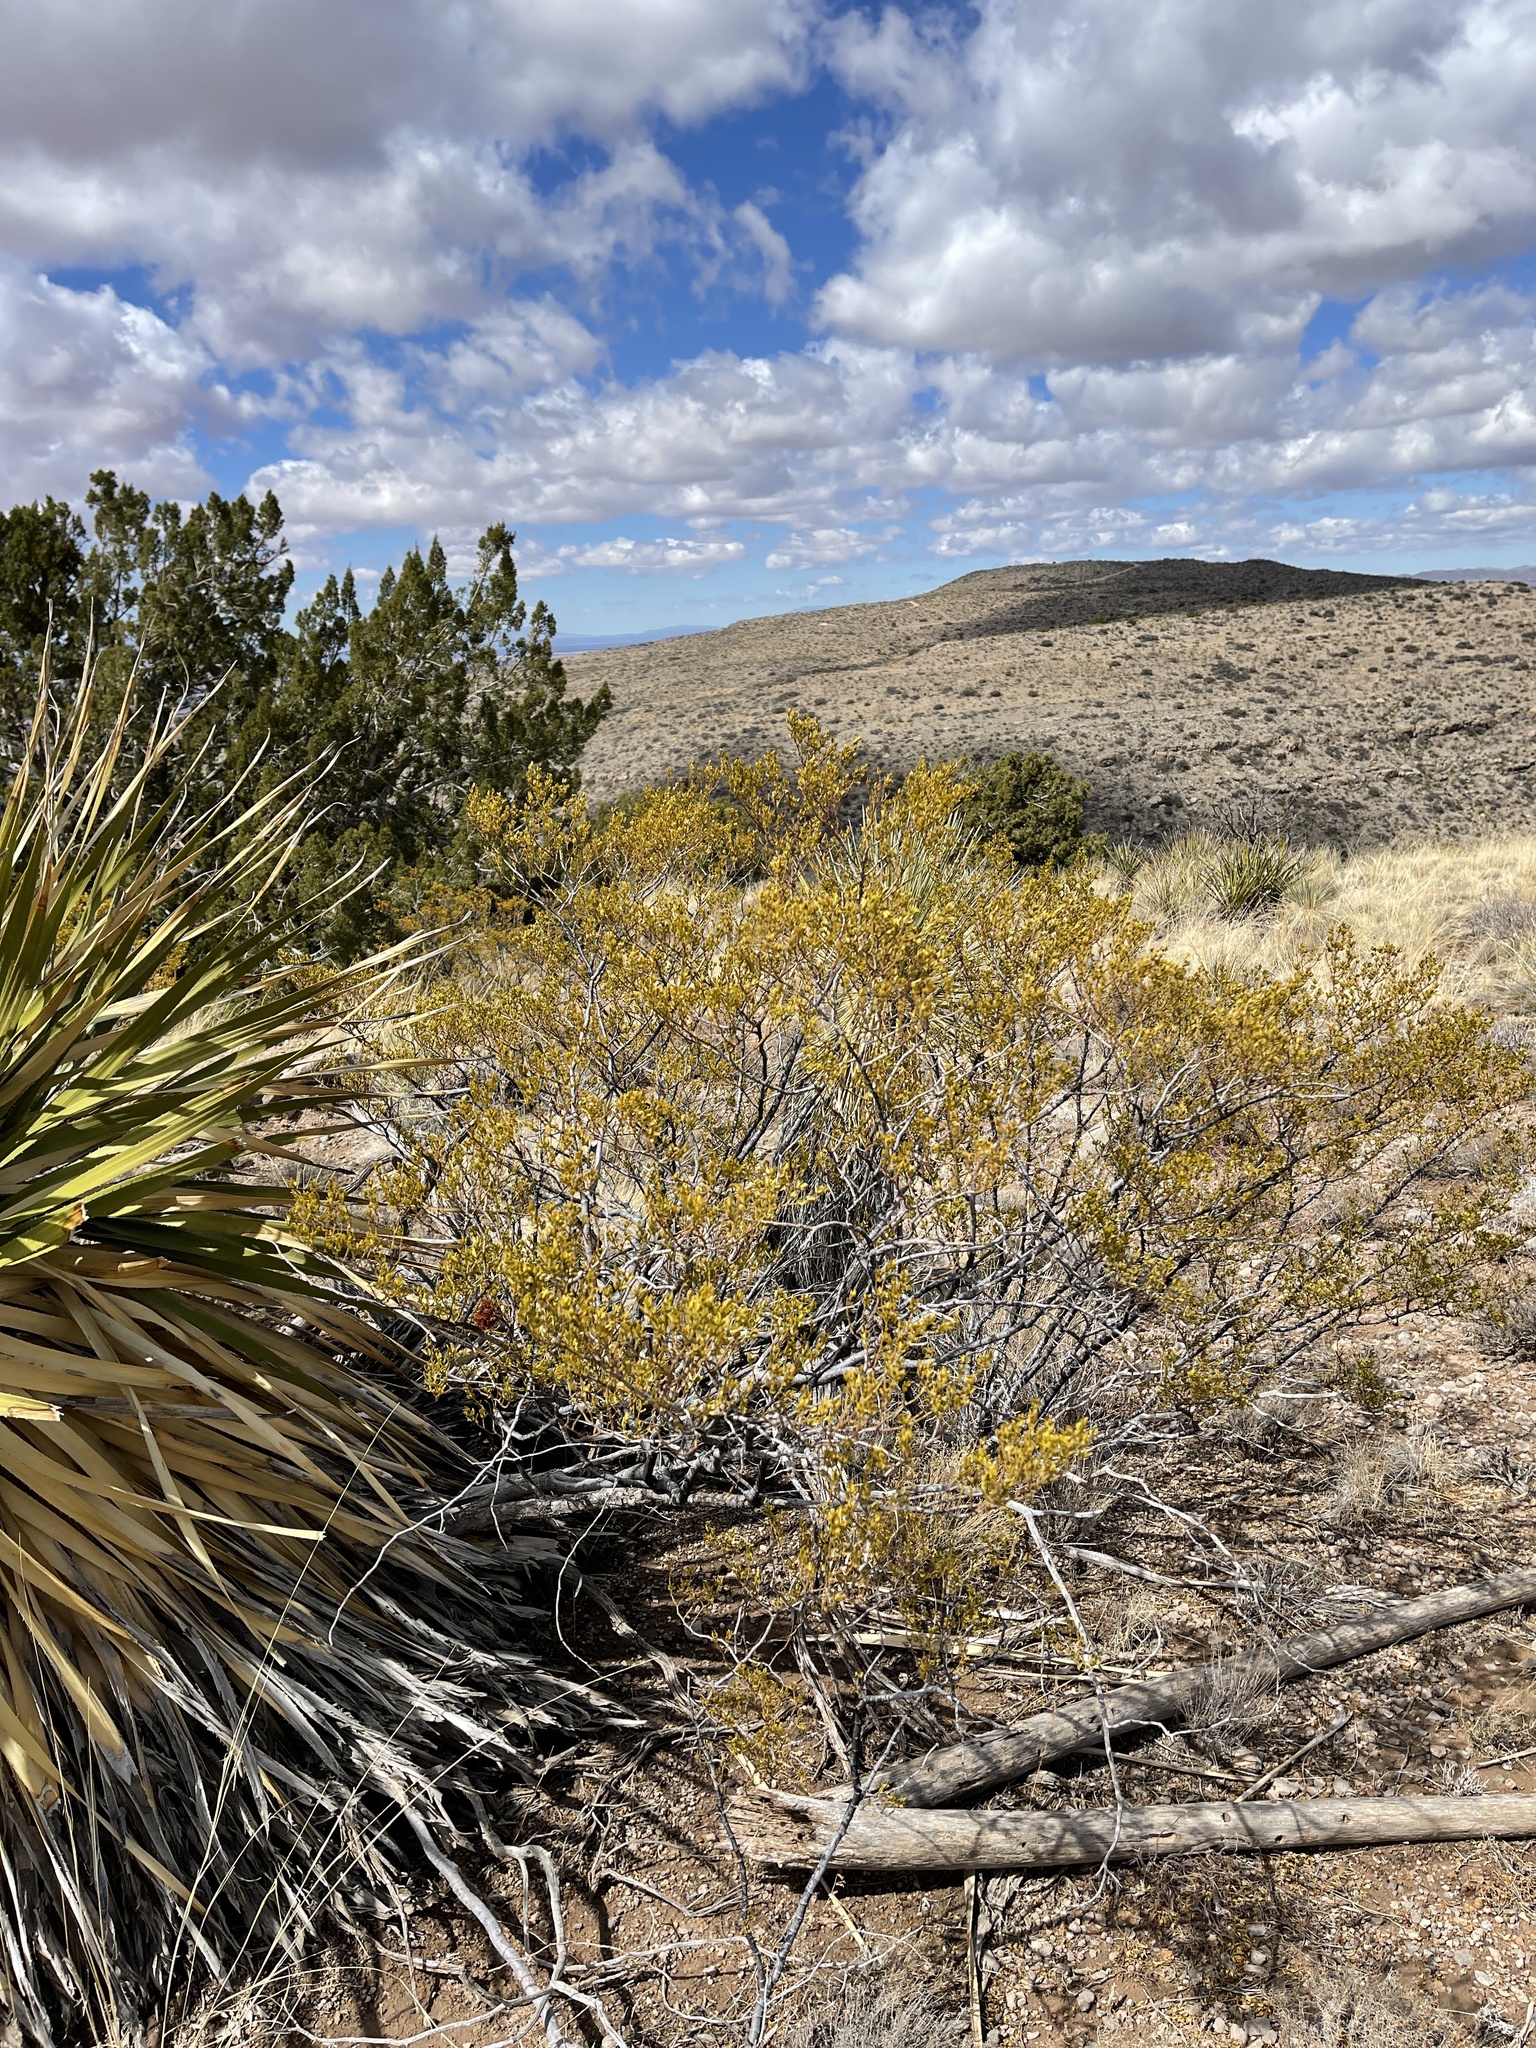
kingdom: Plantae
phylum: Tracheophyta
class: Magnoliopsida
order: Zygophyllales
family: Zygophyllaceae
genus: Larrea
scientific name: Larrea tridentata
